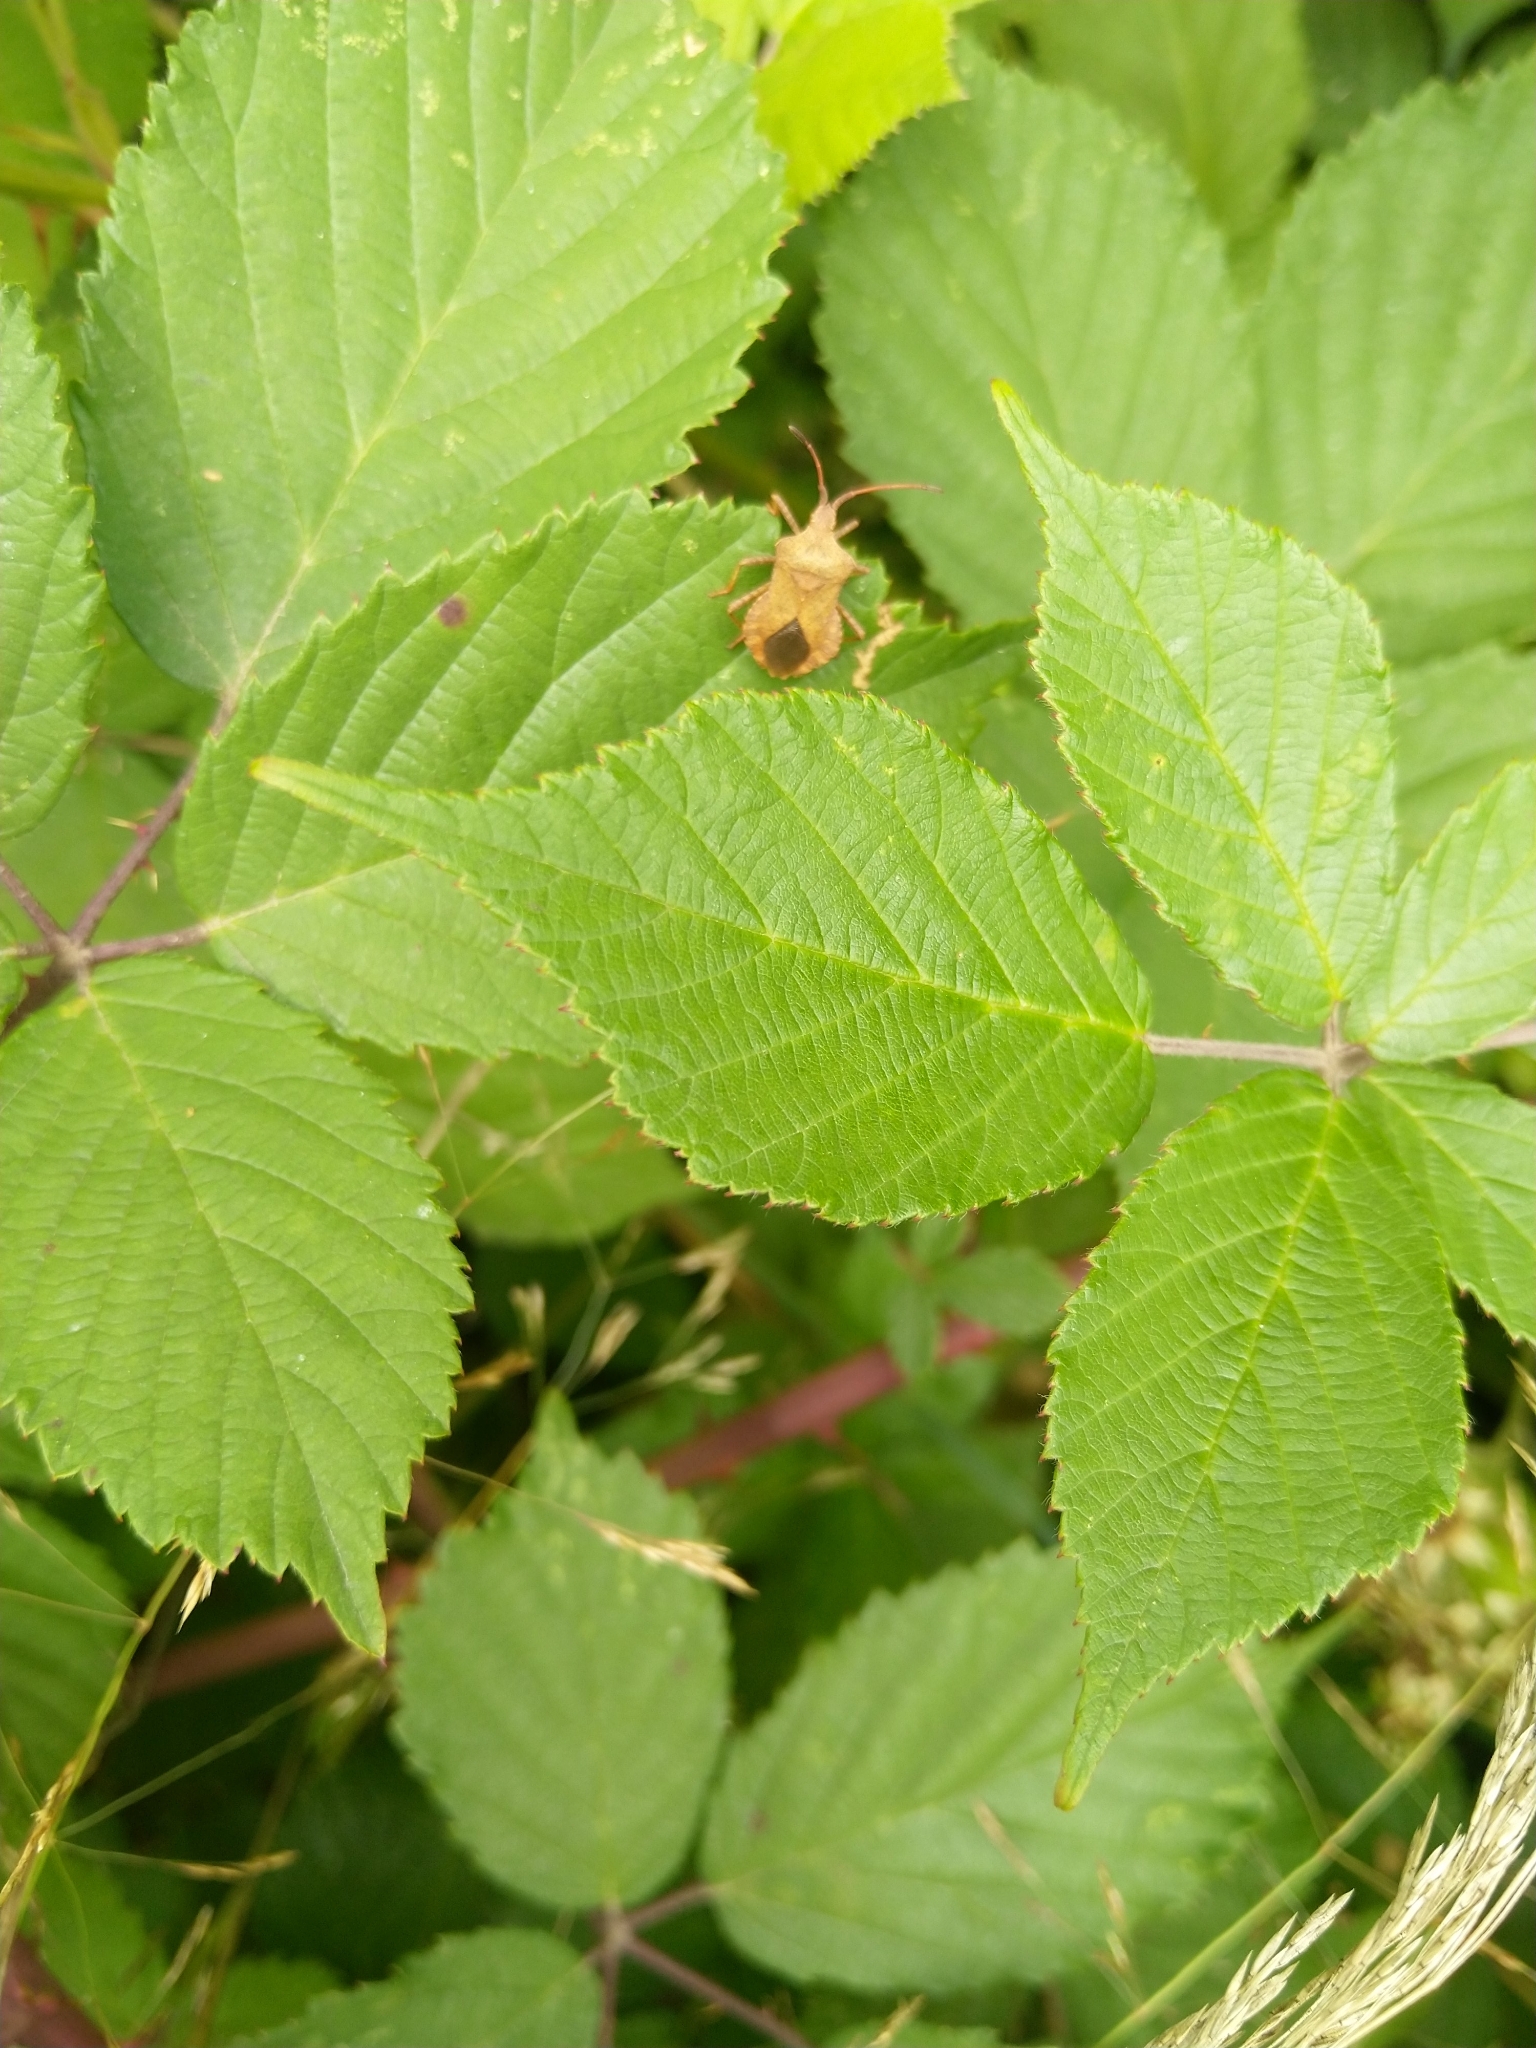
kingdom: Animalia
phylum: Arthropoda
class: Insecta
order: Hemiptera
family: Coreidae
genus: Coreus
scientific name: Coreus marginatus
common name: Dock bug
